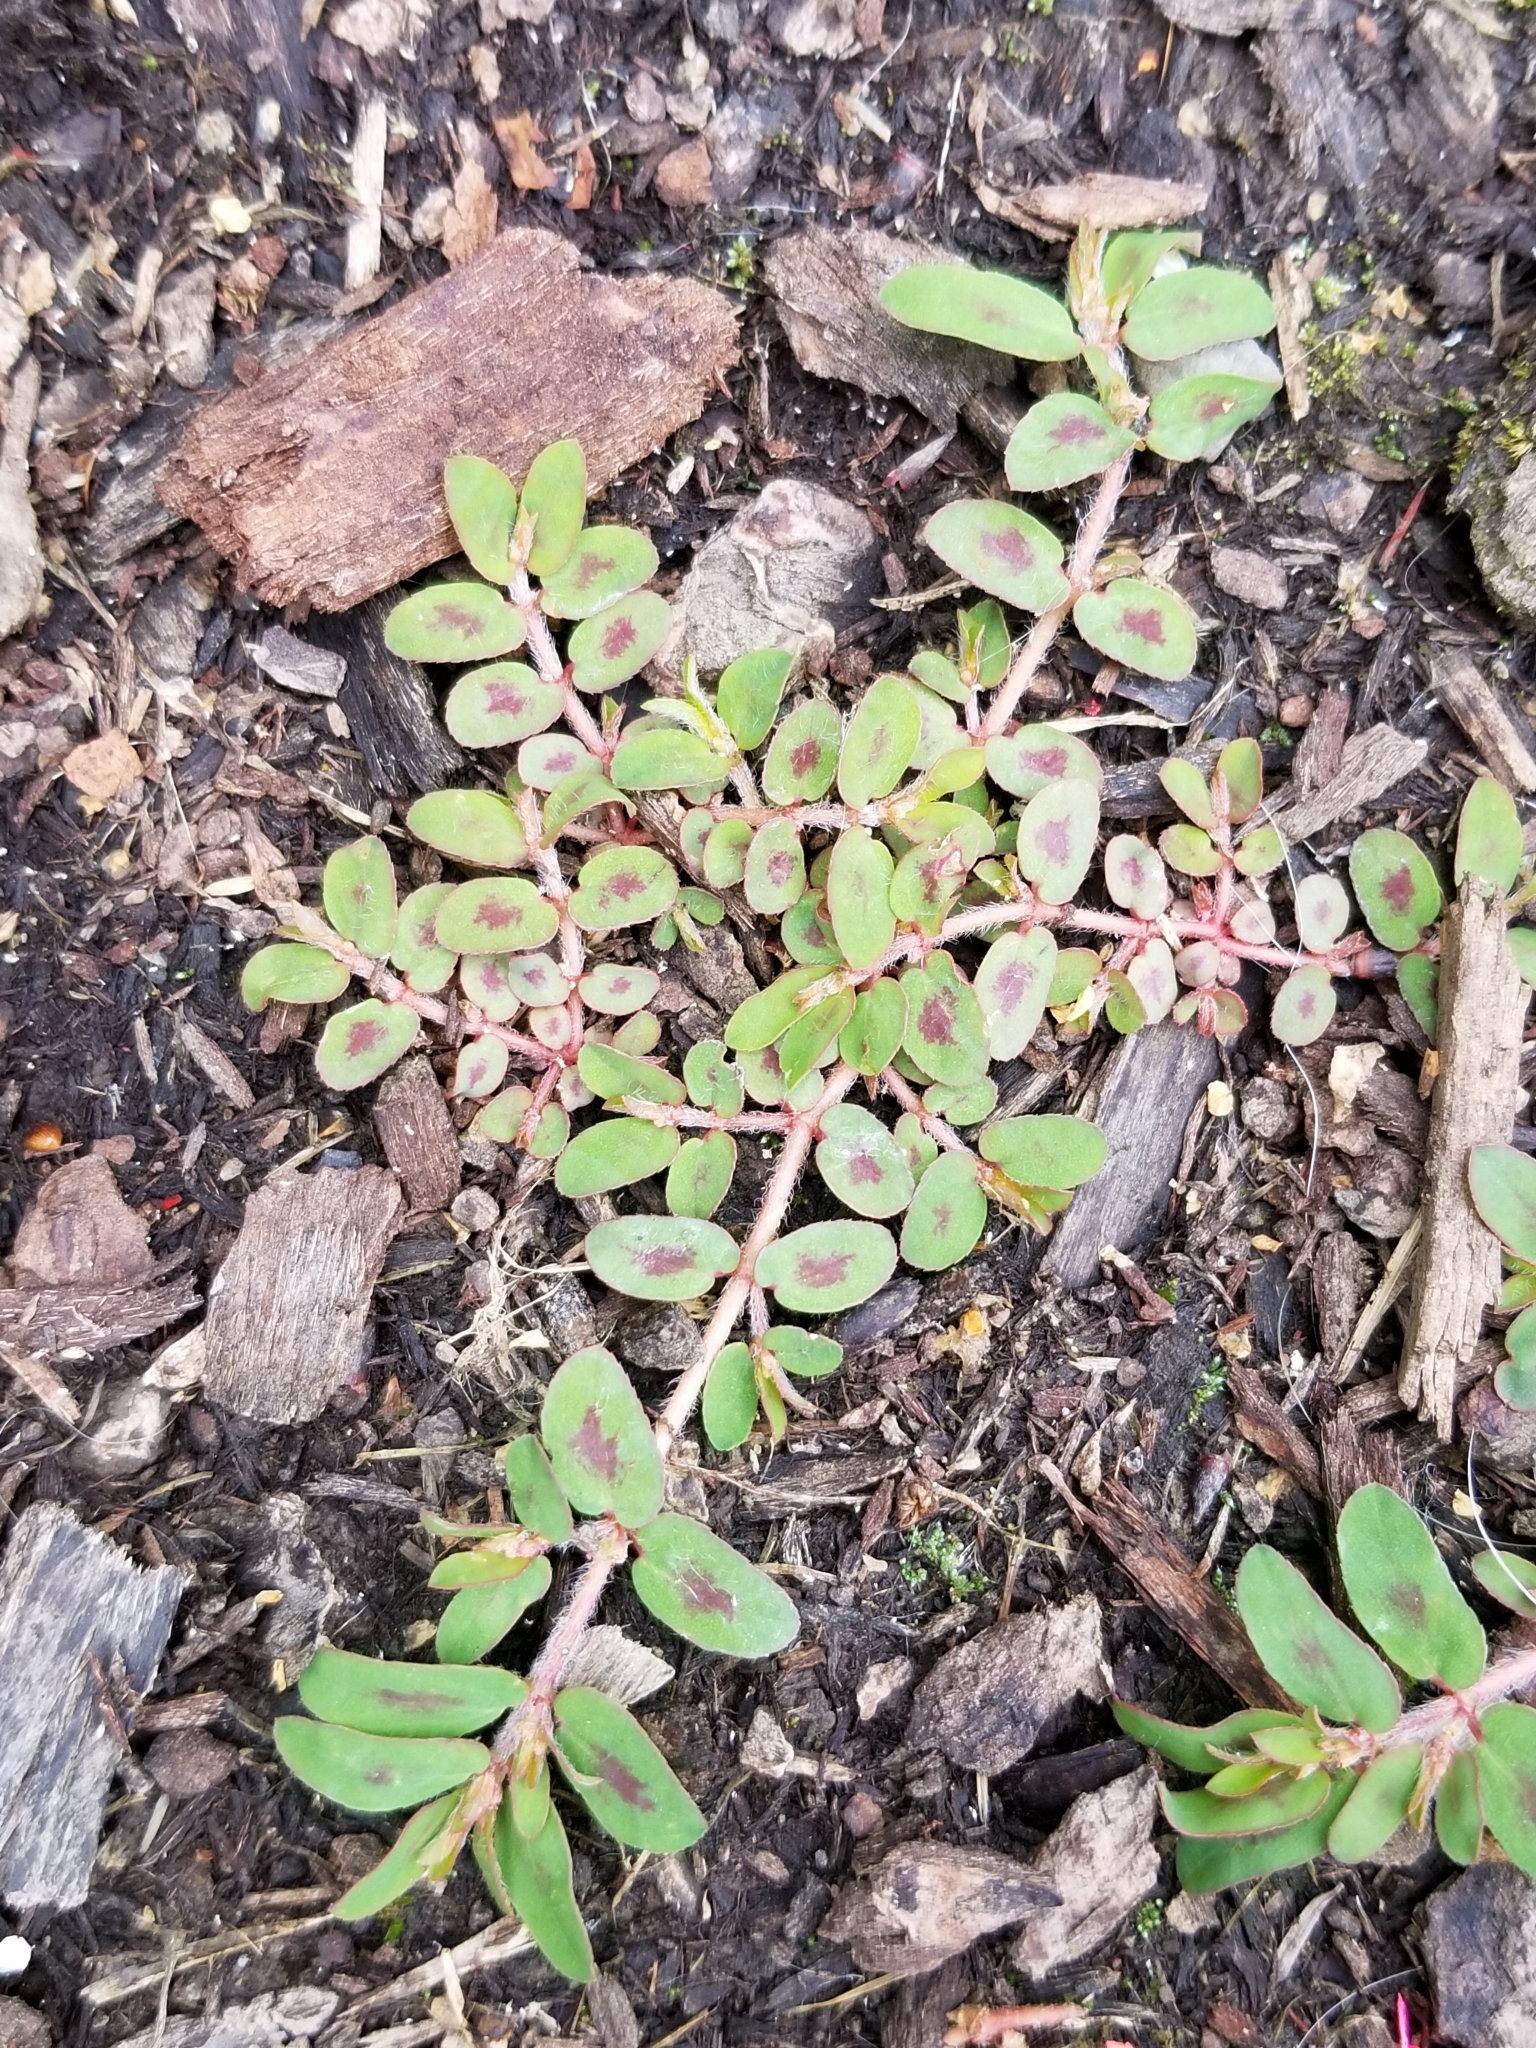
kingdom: Plantae
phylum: Tracheophyta
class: Magnoliopsida
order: Malpighiales
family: Euphorbiaceae
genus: Euphorbia
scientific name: Euphorbia maculata
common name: Spotted spurge
